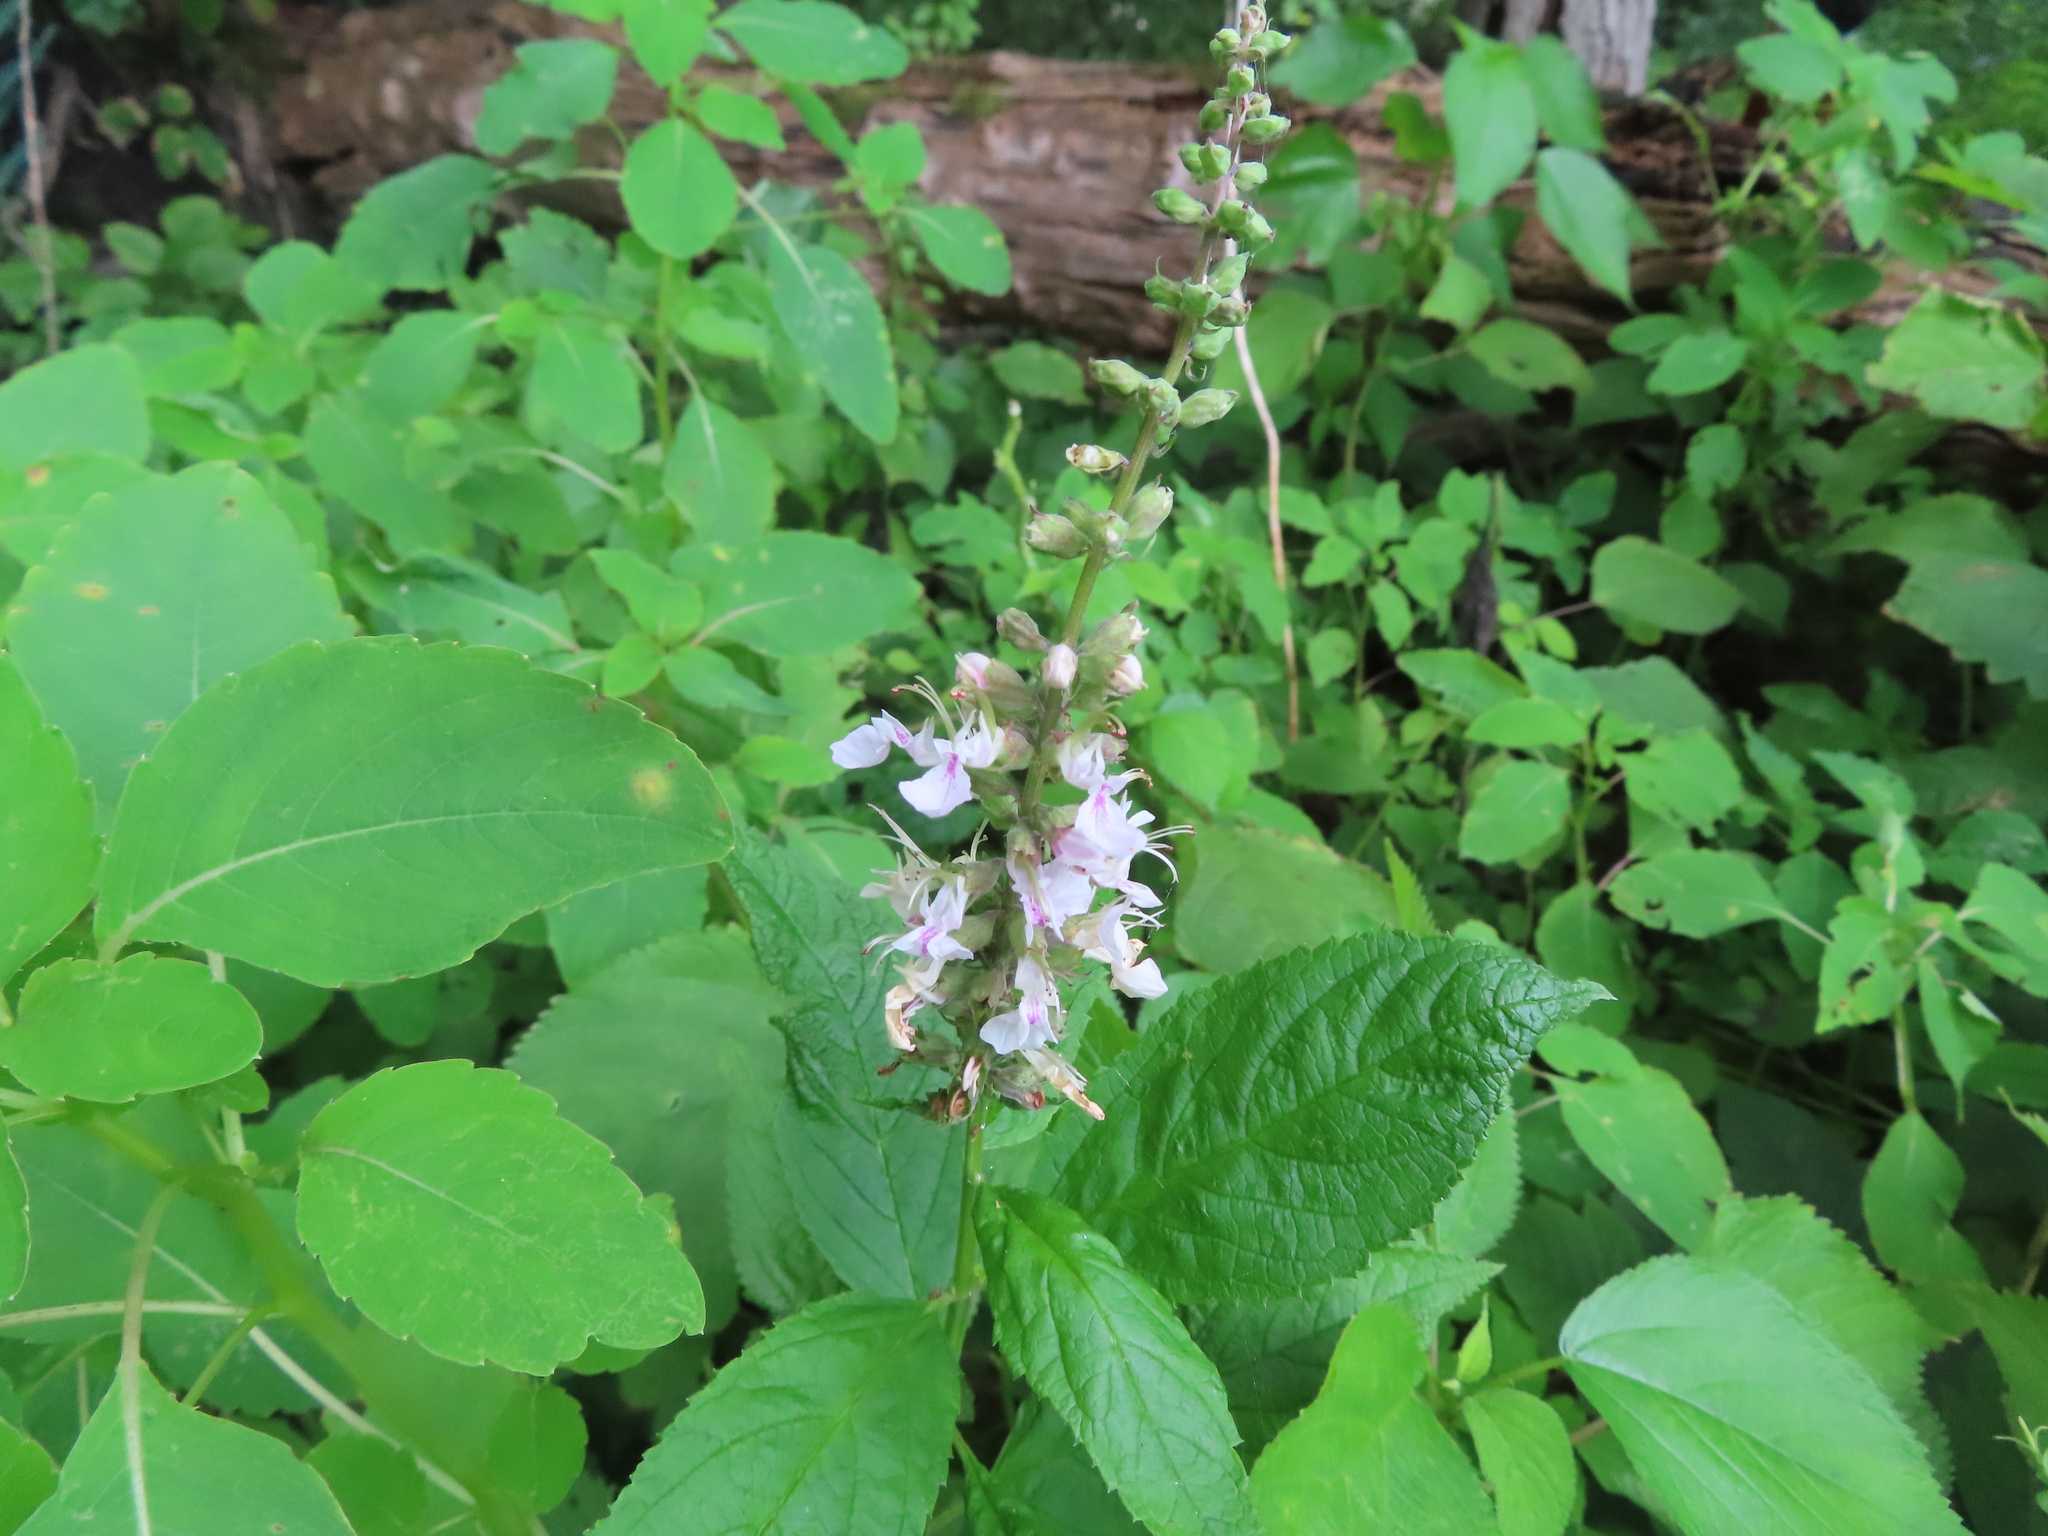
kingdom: Plantae
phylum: Tracheophyta
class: Magnoliopsida
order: Lamiales
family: Lamiaceae
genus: Teucrium
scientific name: Teucrium canadense
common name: American germander
